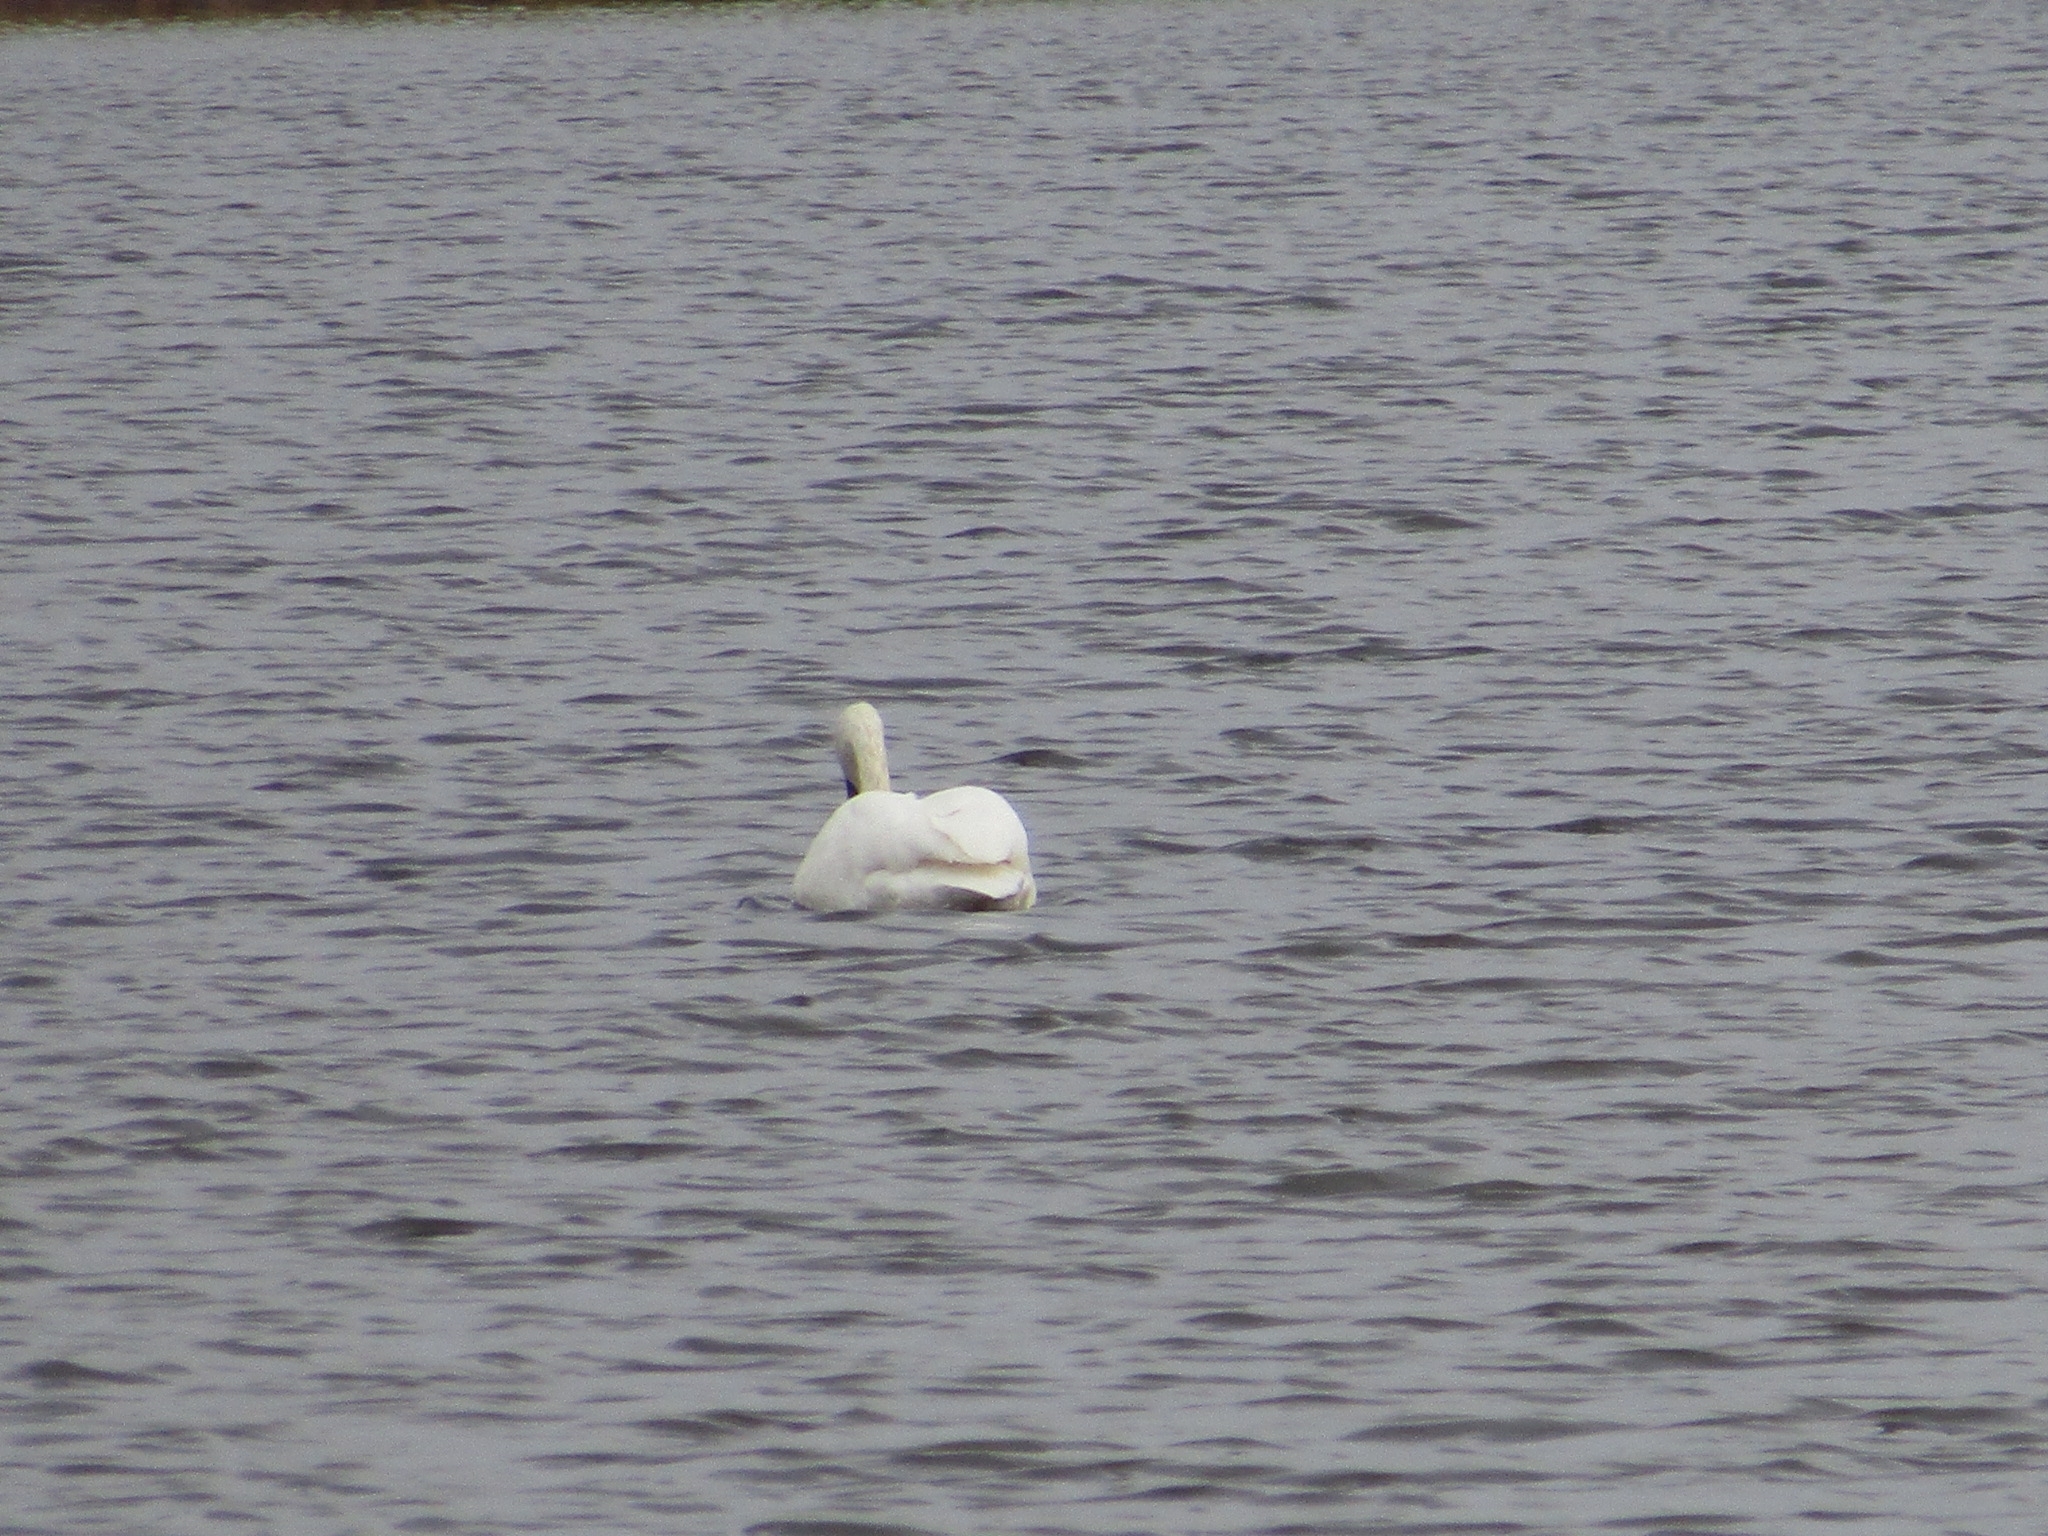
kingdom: Animalia
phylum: Chordata
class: Aves
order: Anseriformes
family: Anatidae
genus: Cygnus
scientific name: Cygnus buccinator
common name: Trumpeter swan
